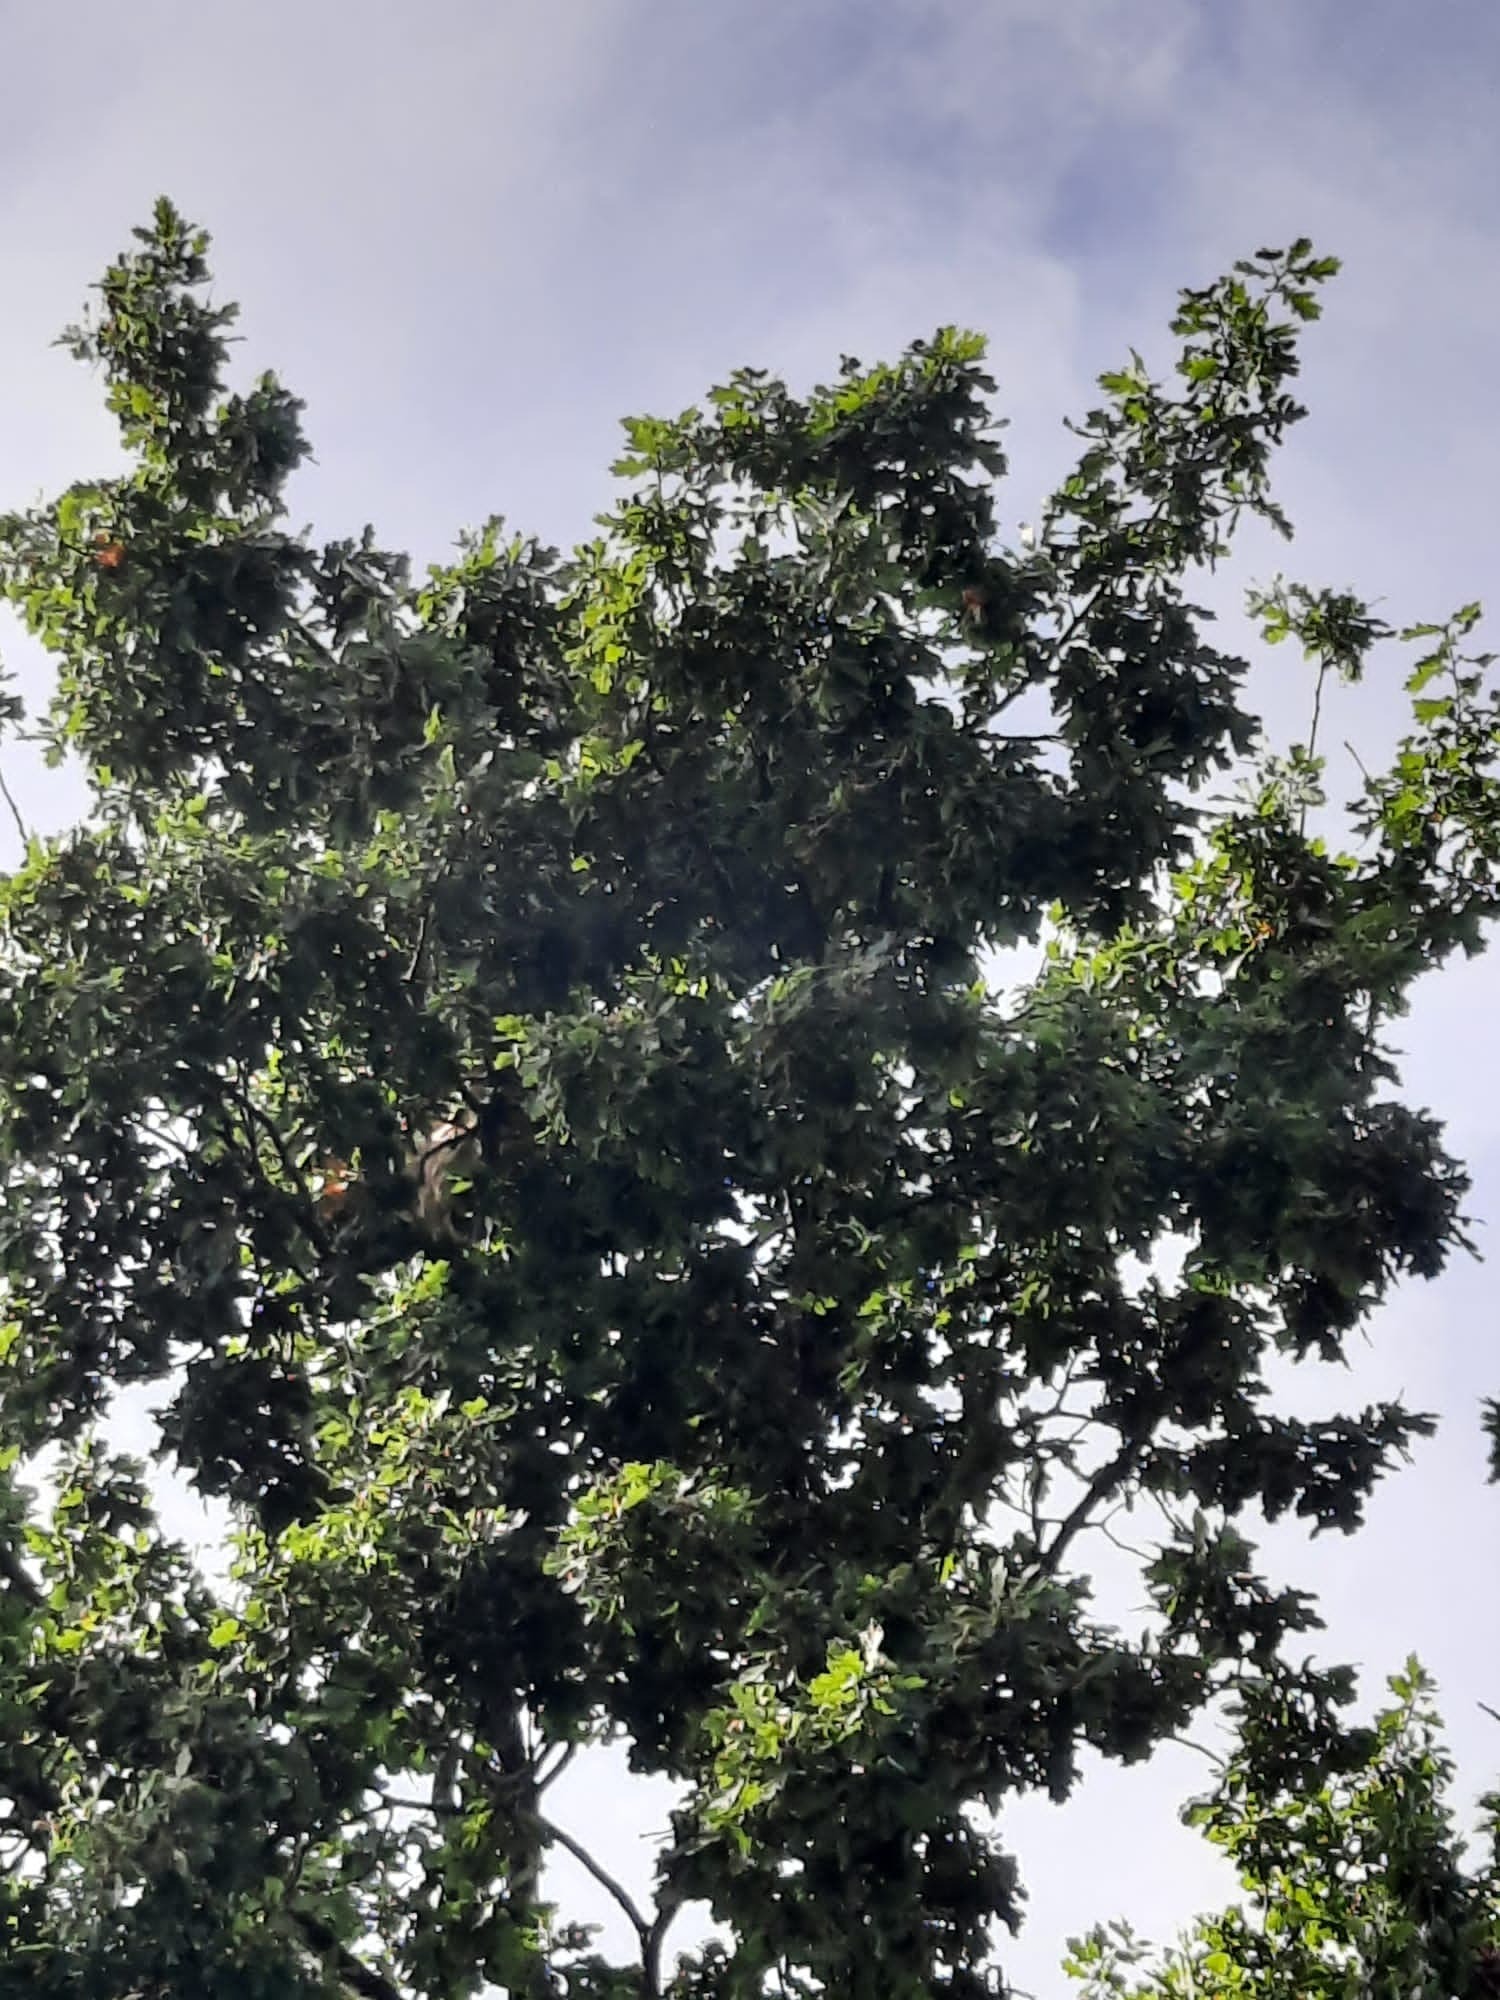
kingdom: Animalia
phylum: Arthropoda
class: Insecta
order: Hymenoptera
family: Vespidae
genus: Vespa
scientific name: Vespa velutina
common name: Asian hornet
